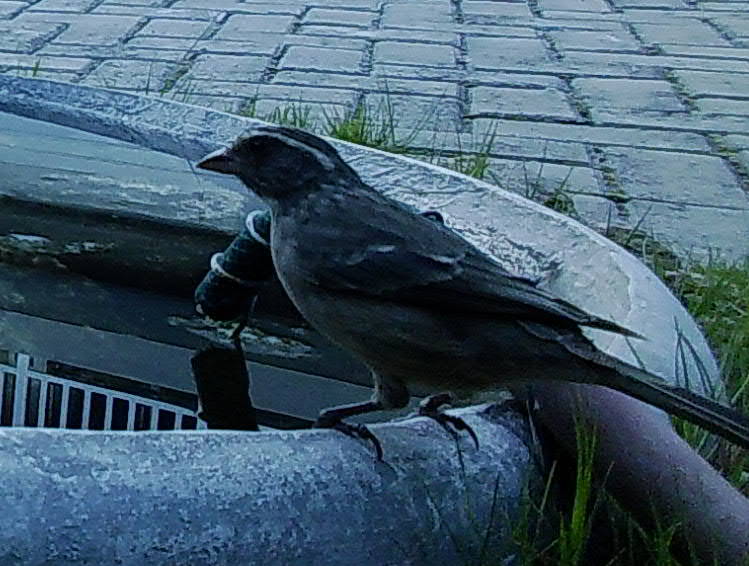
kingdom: Animalia
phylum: Chordata
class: Aves
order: Passeriformes
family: Fringillidae
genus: Crithagra
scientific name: Crithagra gularis
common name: Streaky-headed seedeater
